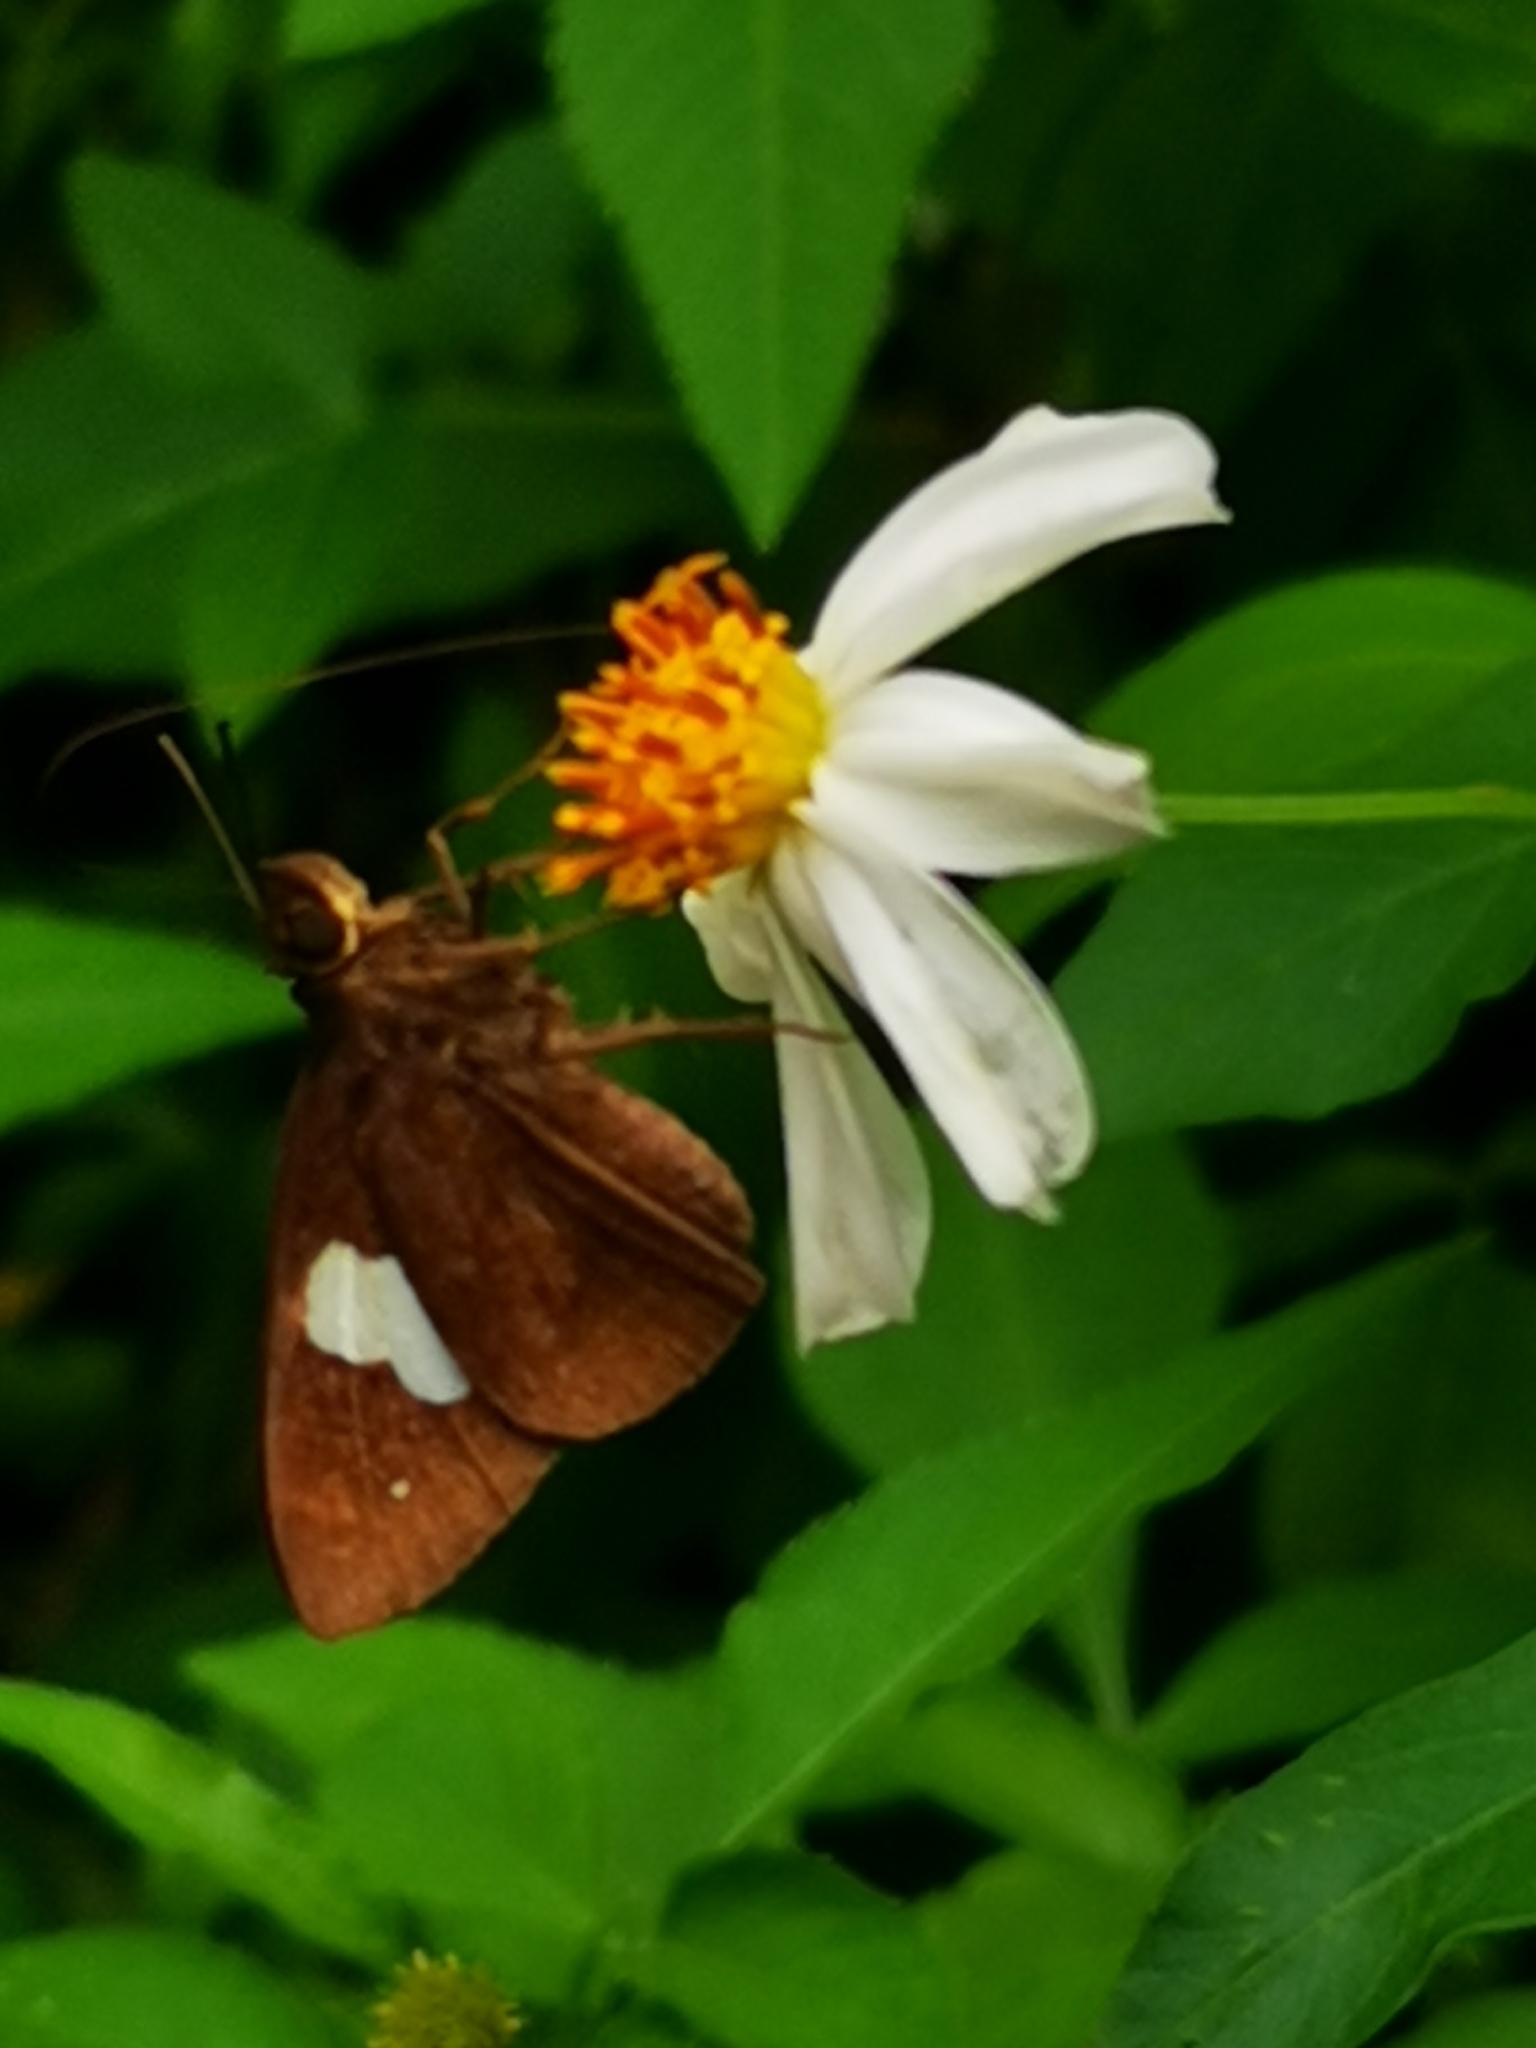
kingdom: Animalia
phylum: Arthropoda
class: Insecta
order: Lepidoptera
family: Hesperiidae
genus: Notocrypta
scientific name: Notocrypta paralysos
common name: Common banded demon
